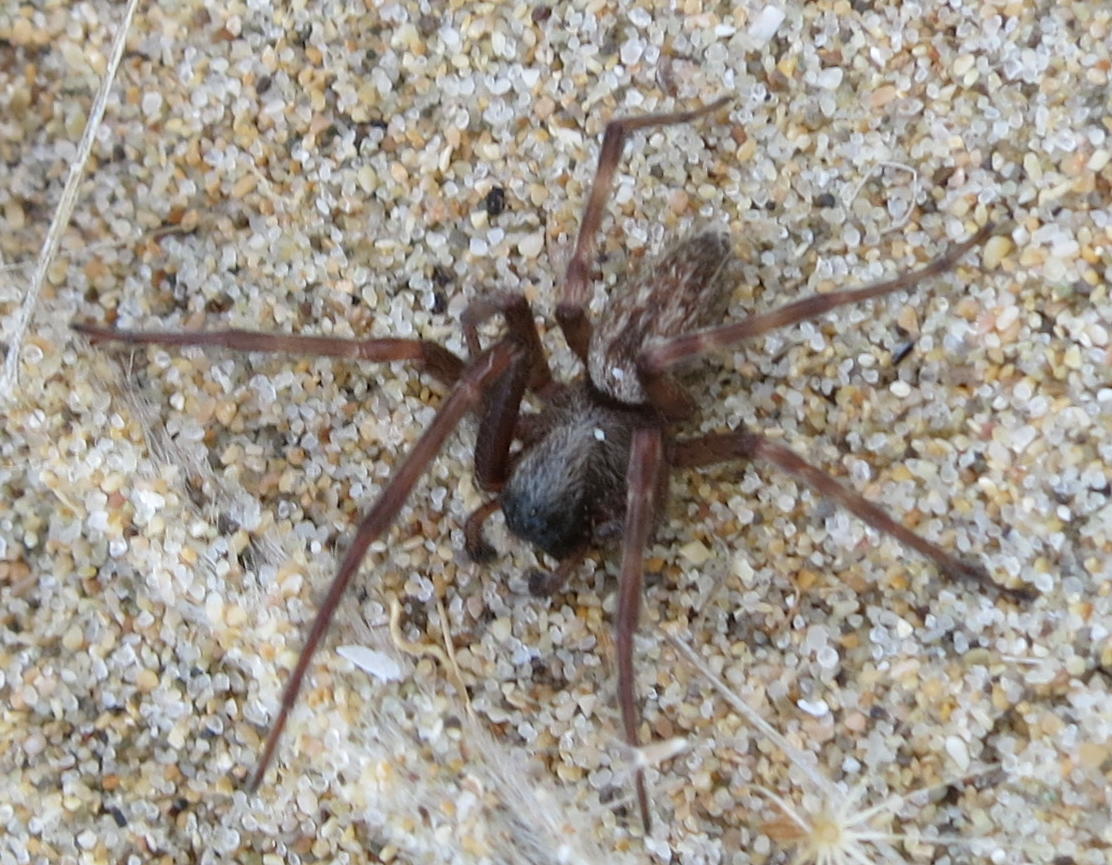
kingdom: Animalia
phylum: Arthropoda
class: Arachnida
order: Araneae
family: Desidae
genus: Badumna
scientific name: Badumna longinqua
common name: Gray house spider
